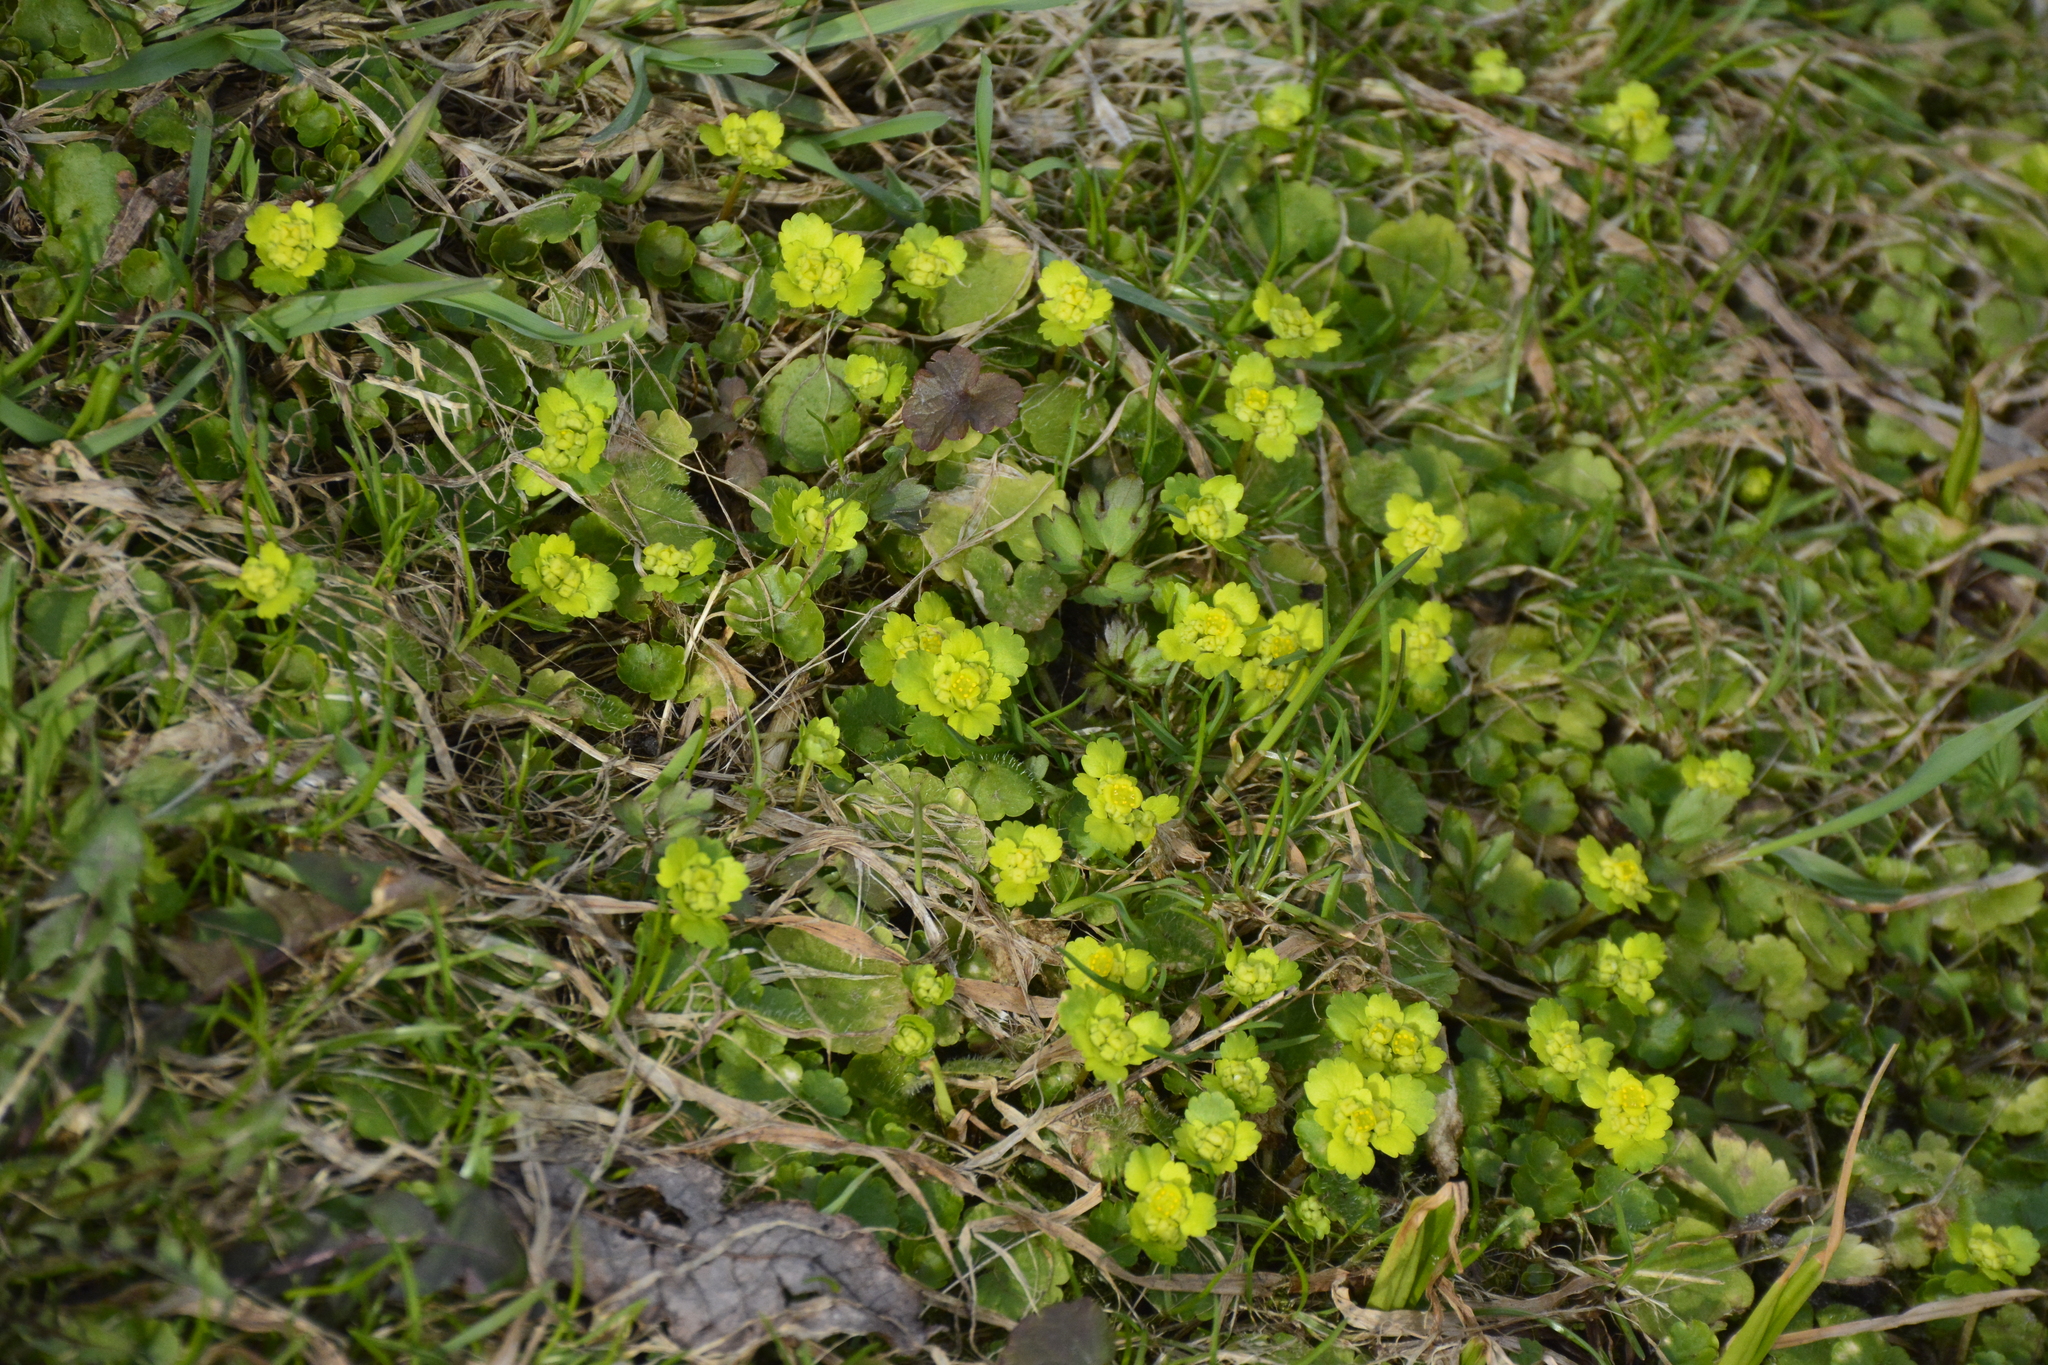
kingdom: Plantae
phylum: Tracheophyta
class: Magnoliopsida
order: Saxifragales
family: Saxifragaceae
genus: Chrysosplenium
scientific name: Chrysosplenium alternifolium
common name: Alternate-leaved golden-saxifrage
